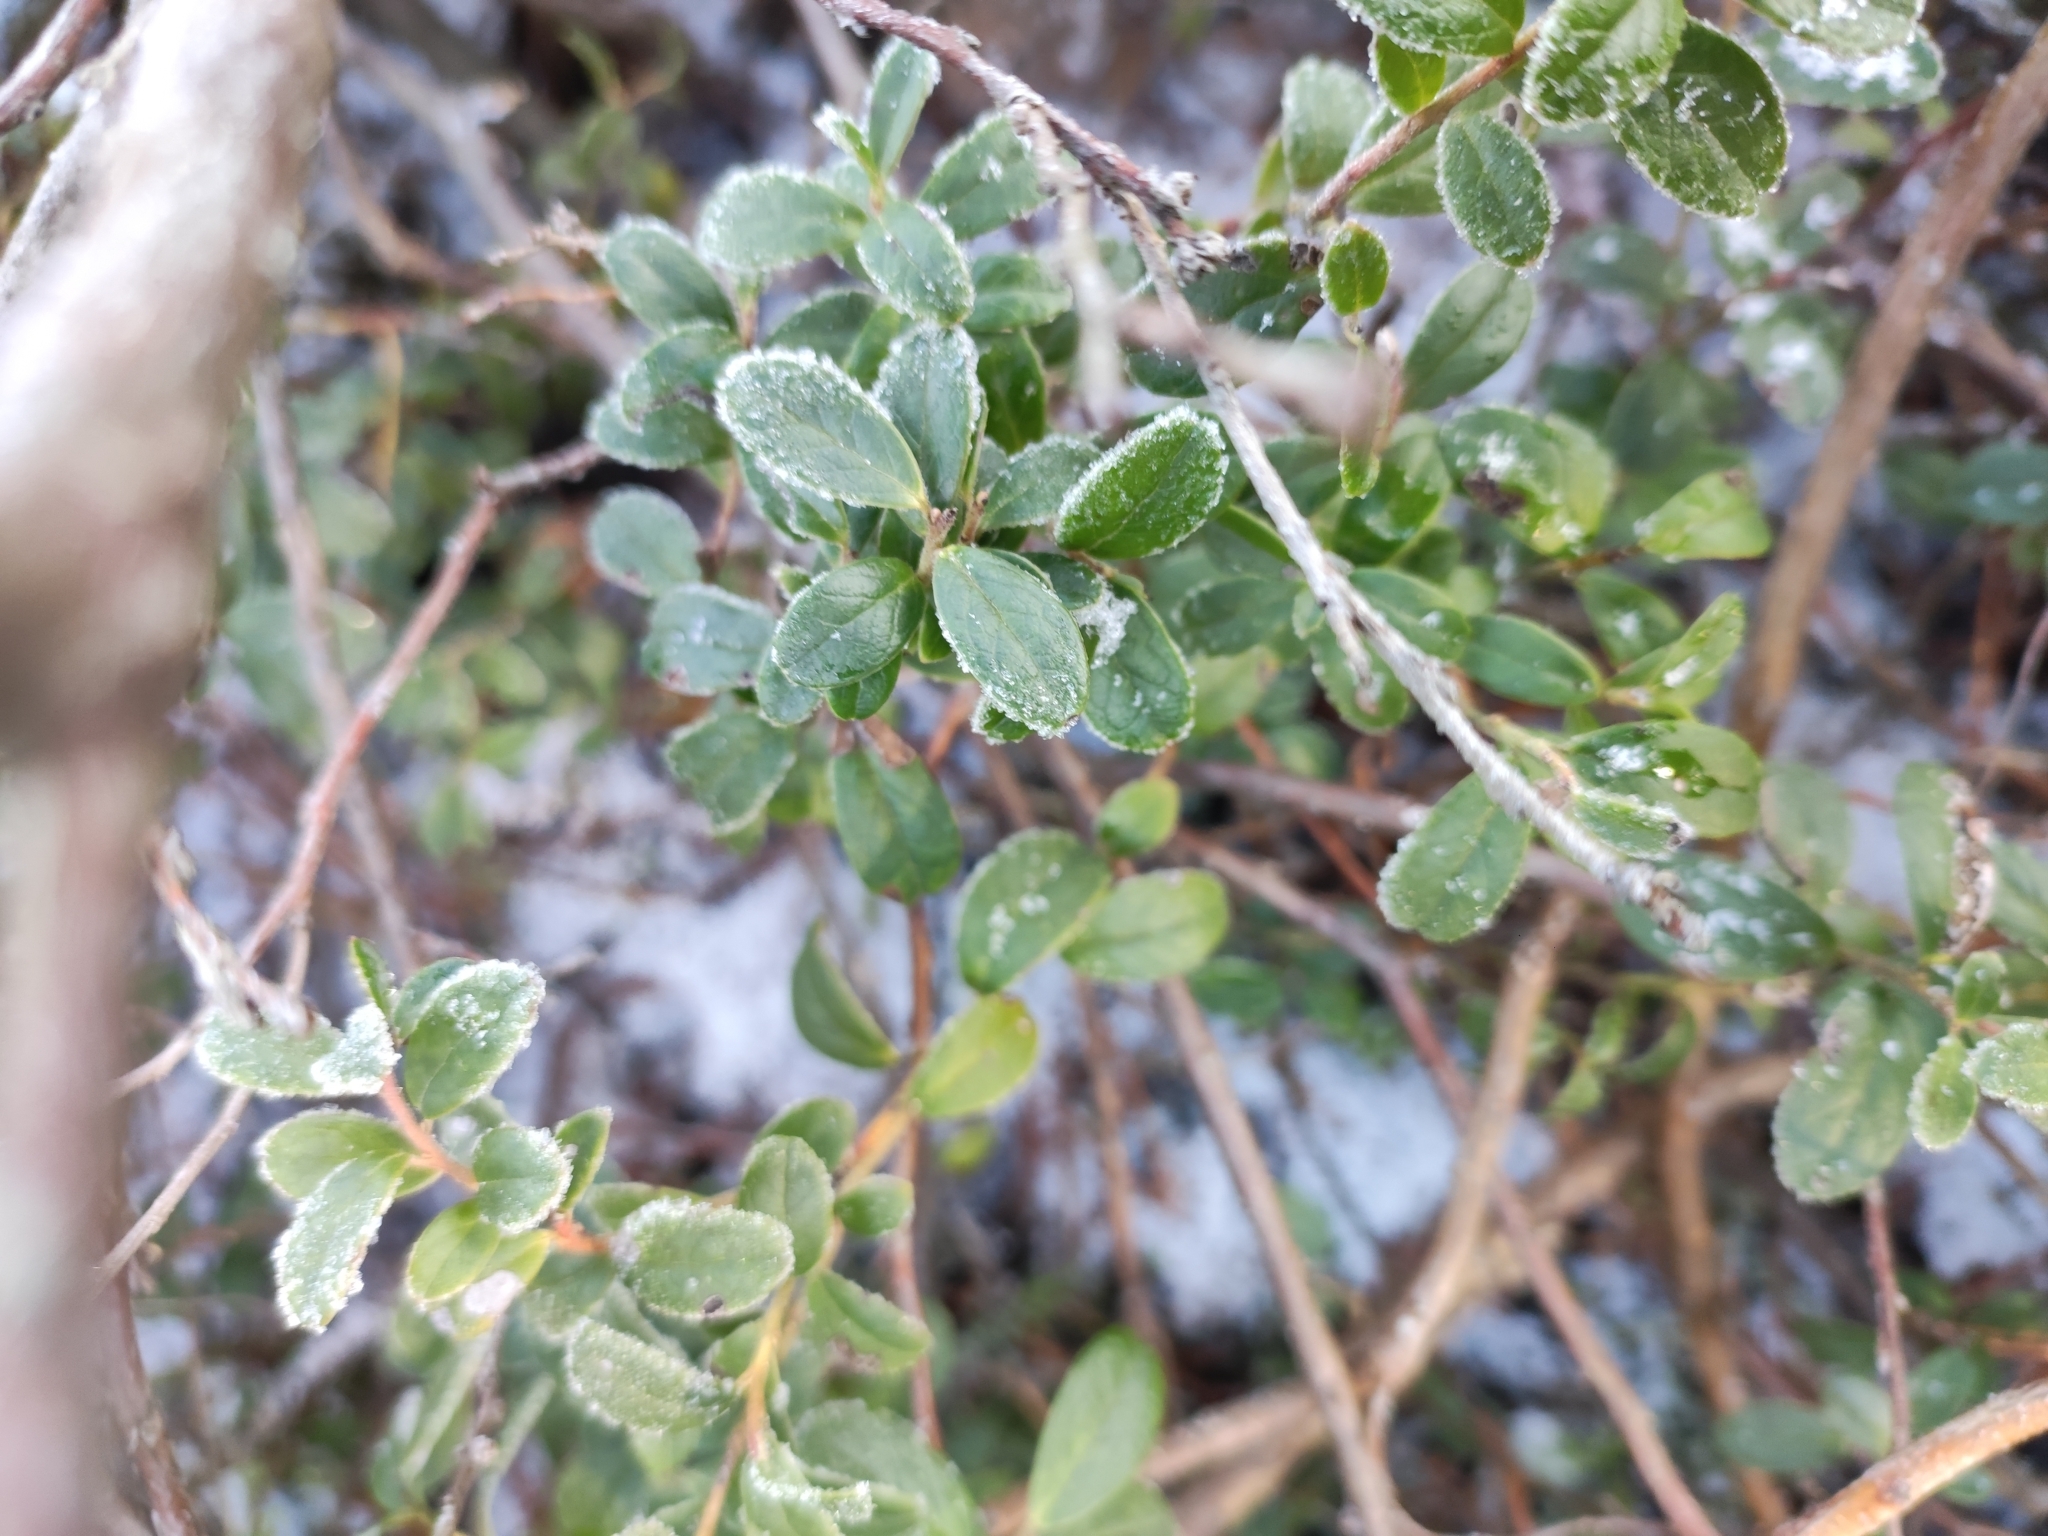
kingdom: Plantae
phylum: Tracheophyta
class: Magnoliopsida
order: Ericales
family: Ericaceae
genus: Vaccinium
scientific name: Vaccinium vitis-idaea
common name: Cowberry
